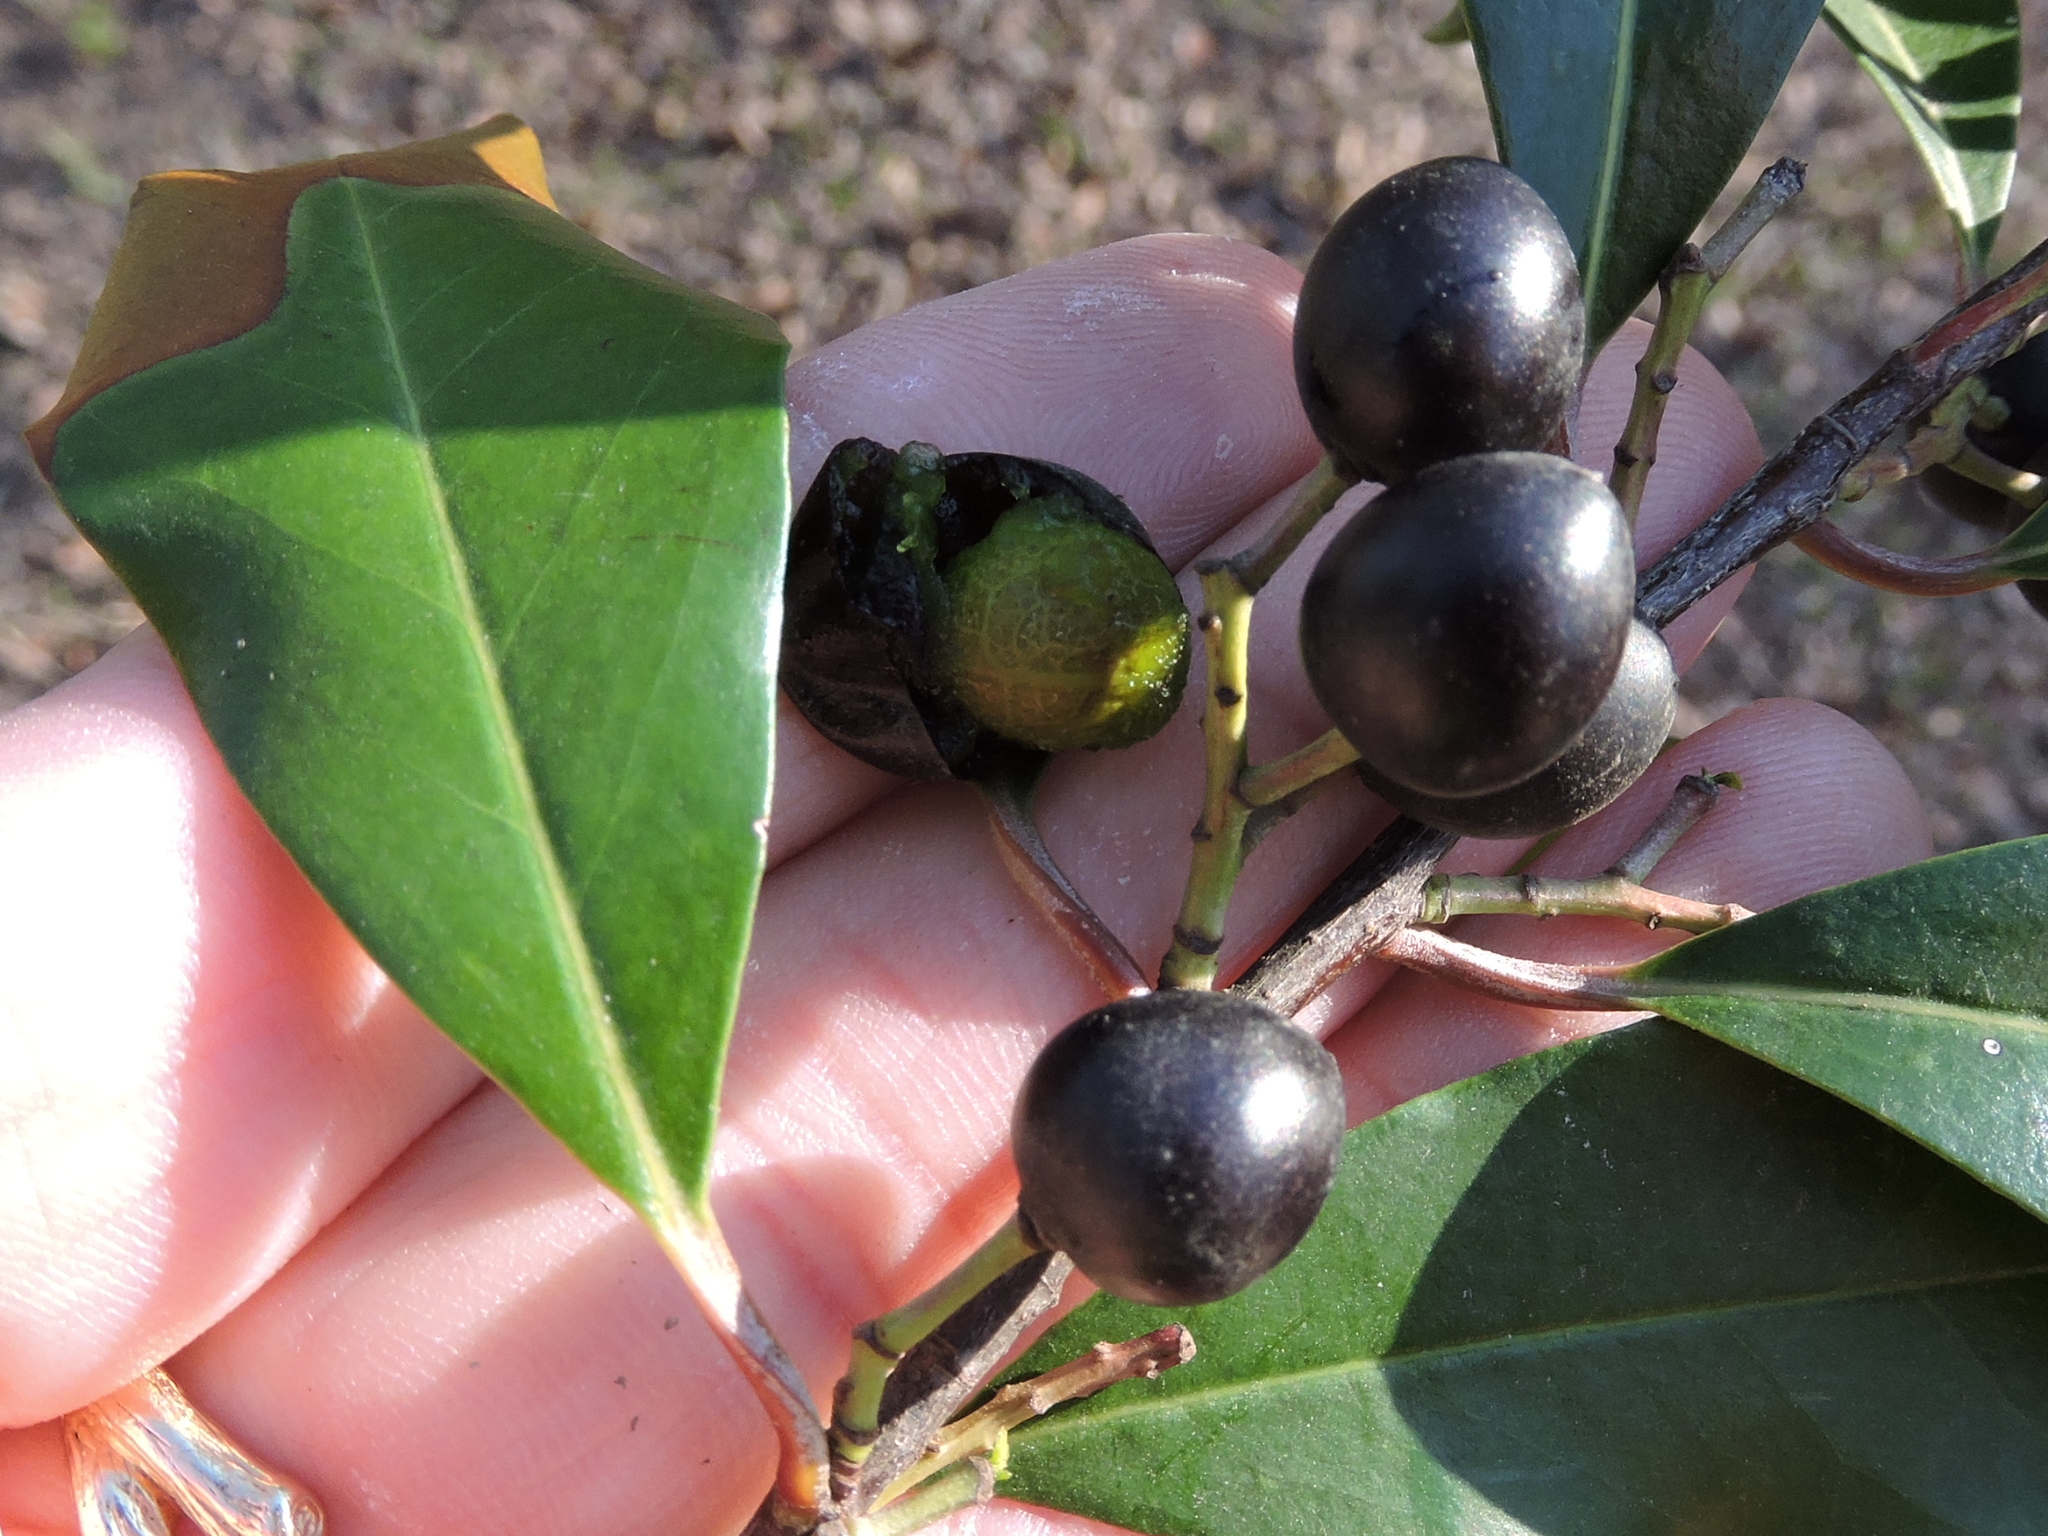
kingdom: Plantae
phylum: Tracheophyta
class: Magnoliopsida
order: Rosales
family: Rosaceae
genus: Prunus
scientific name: Prunus caroliniana
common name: Carolina laurel cherry
